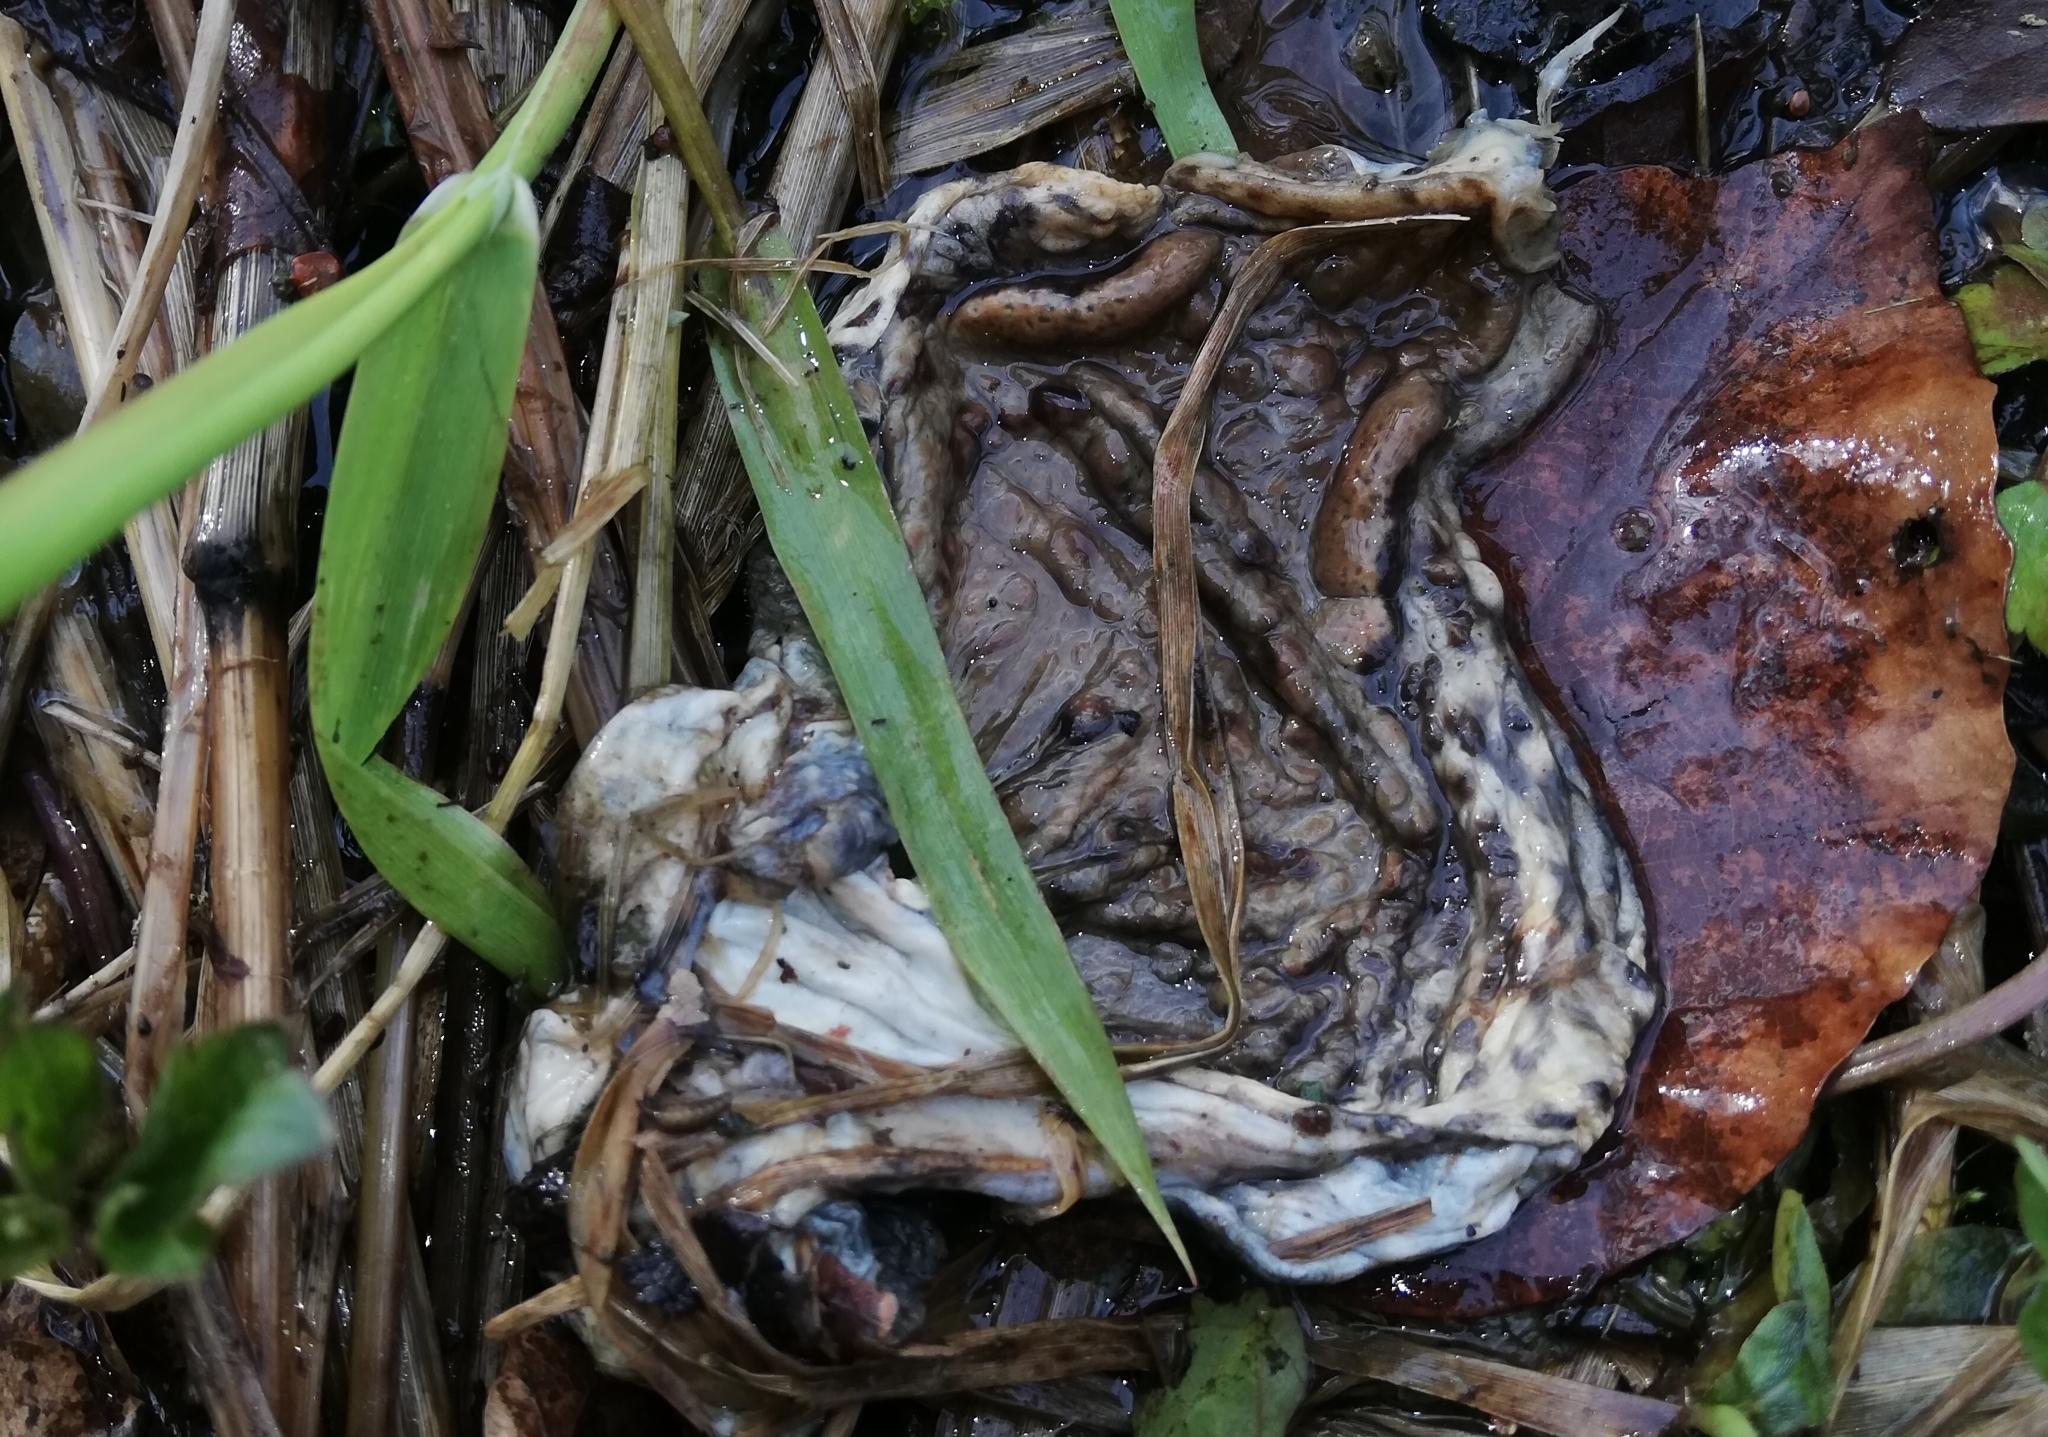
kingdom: Animalia
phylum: Chordata
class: Amphibia
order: Anura
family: Bufonidae
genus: Bufo
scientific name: Bufo bufo
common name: Common toad
